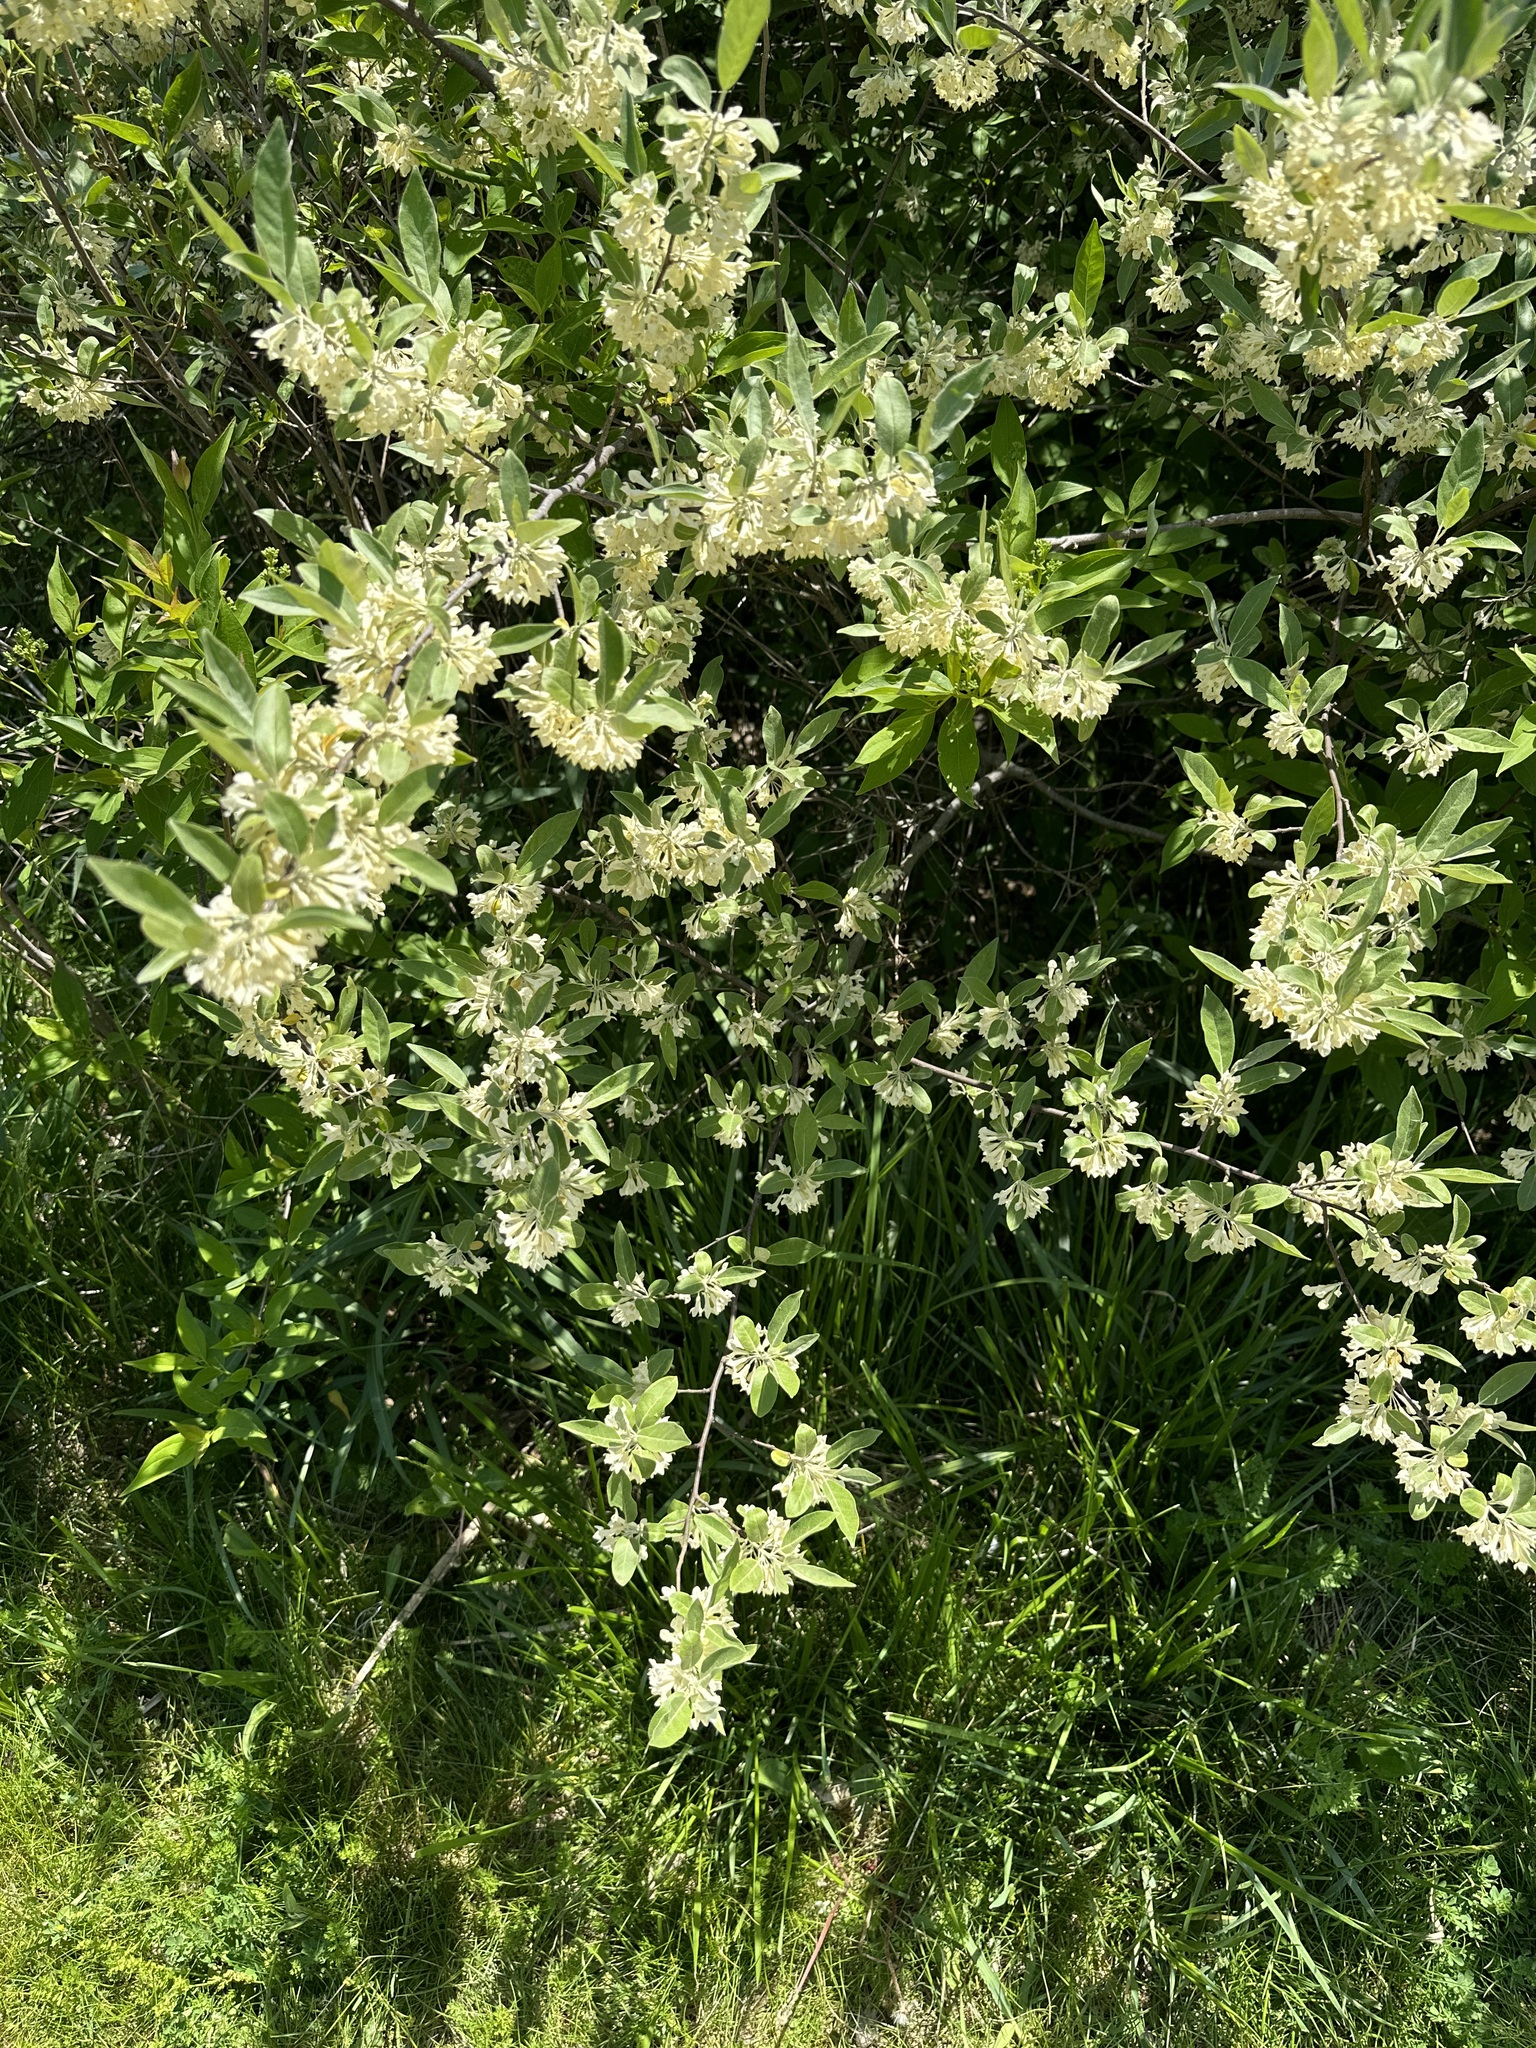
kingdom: Plantae
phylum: Tracheophyta
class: Magnoliopsida
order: Rosales
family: Elaeagnaceae
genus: Elaeagnus
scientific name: Elaeagnus umbellata
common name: Autumn olive
